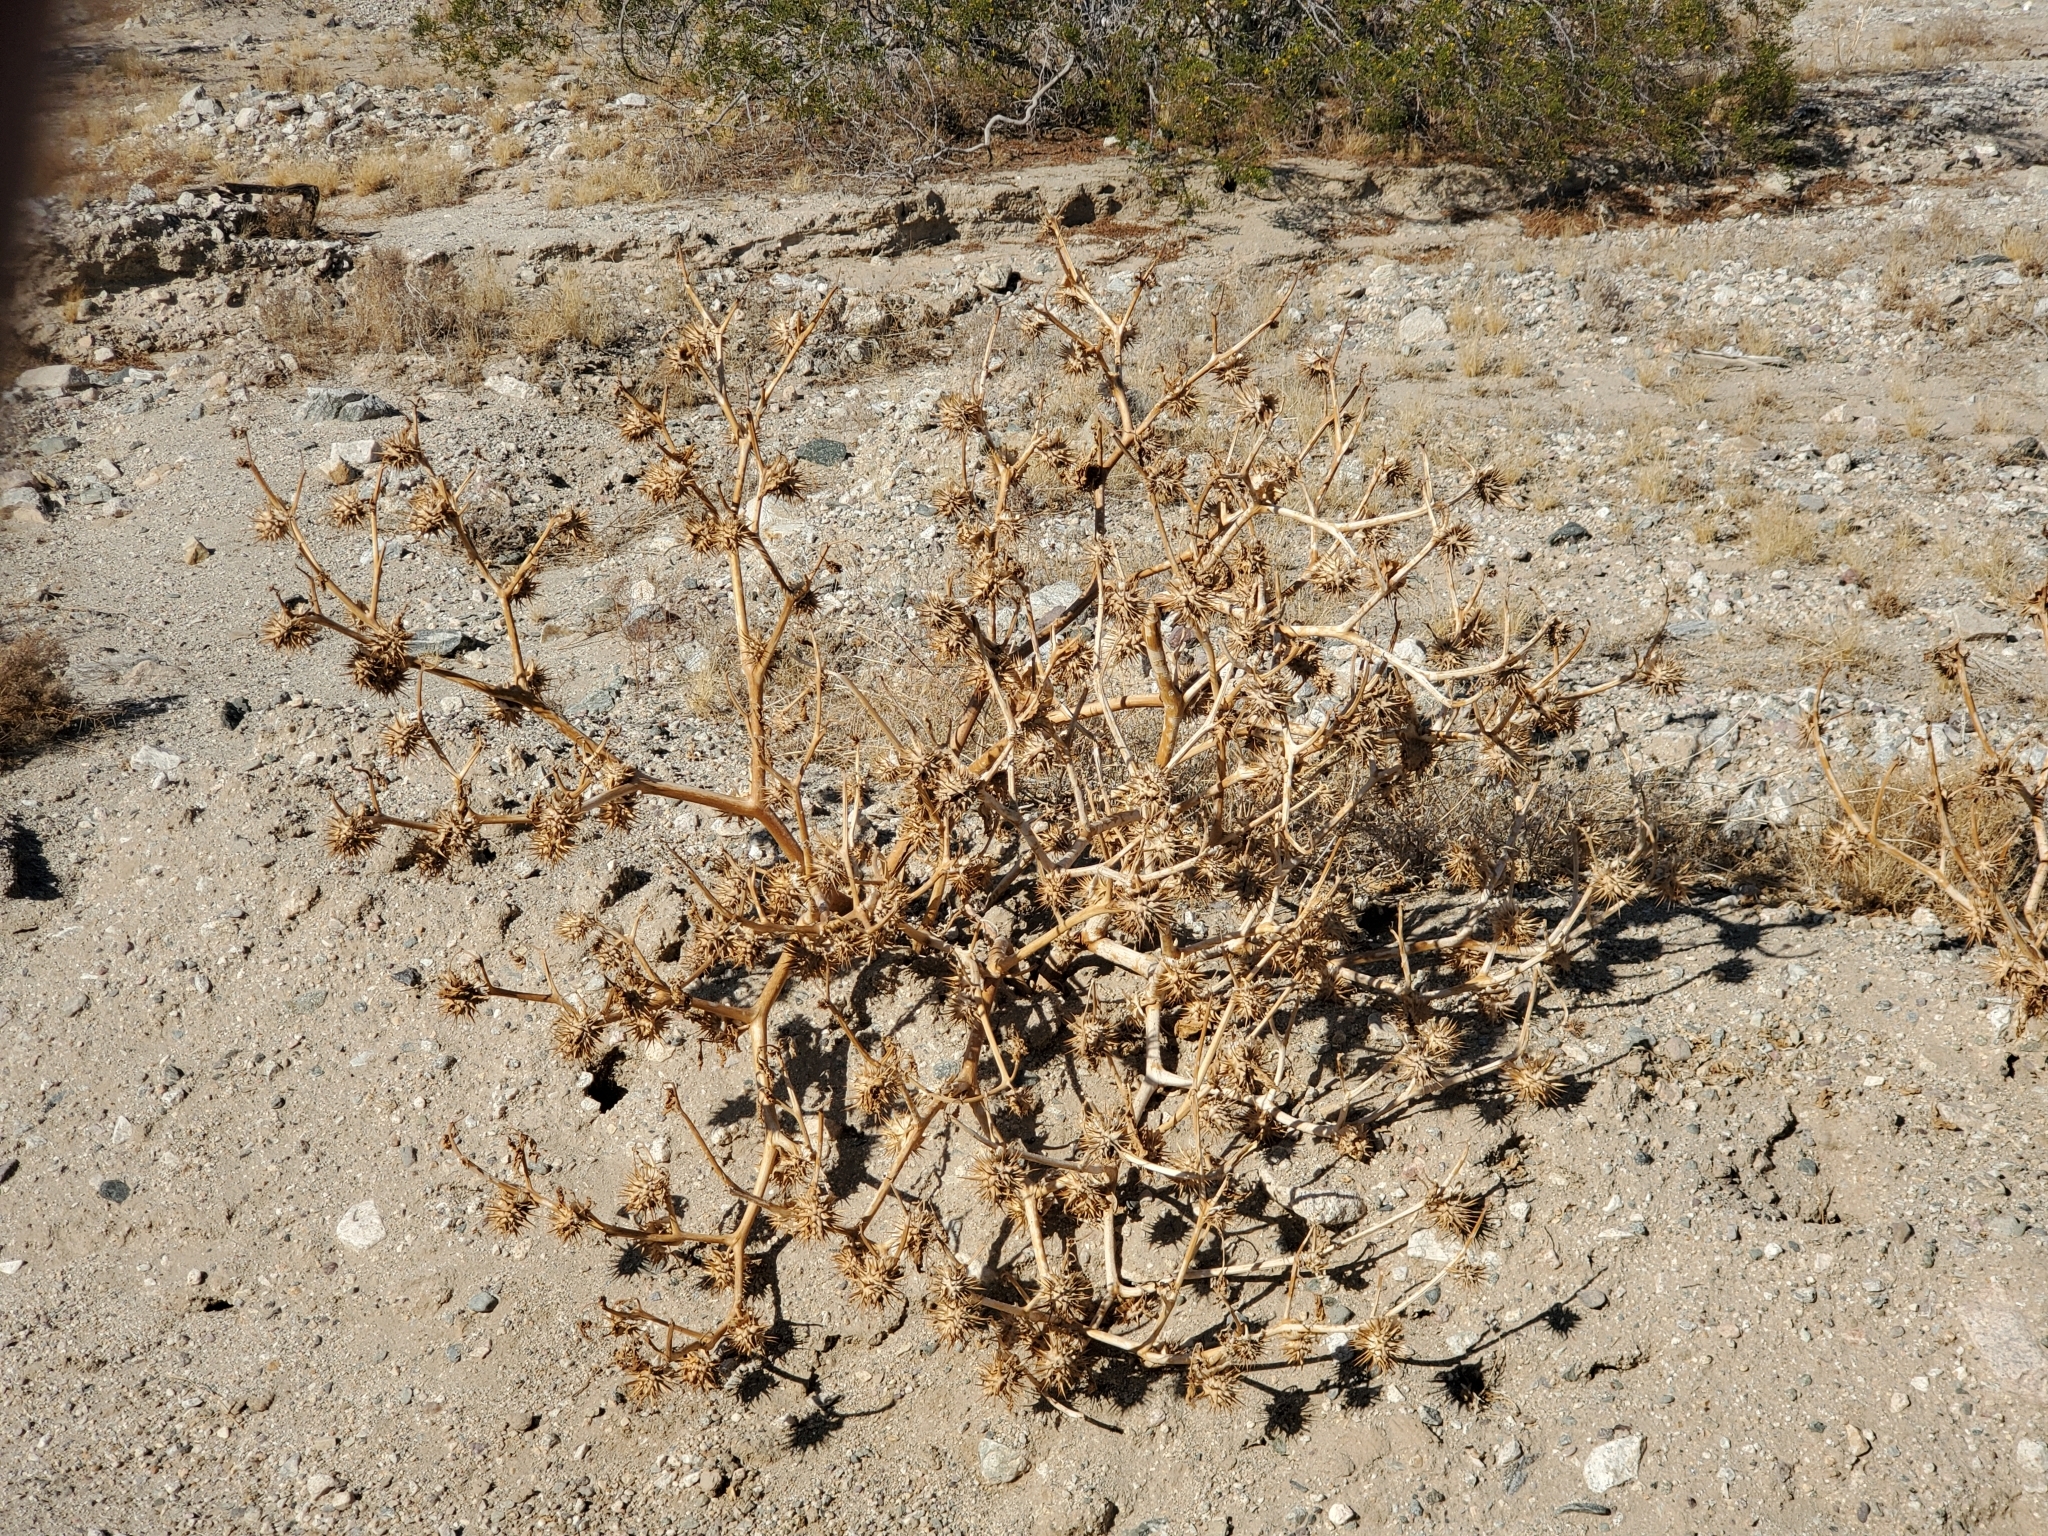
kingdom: Plantae
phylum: Tracheophyta
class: Magnoliopsida
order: Solanales
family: Solanaceae
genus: Datura
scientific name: Datura discolor
